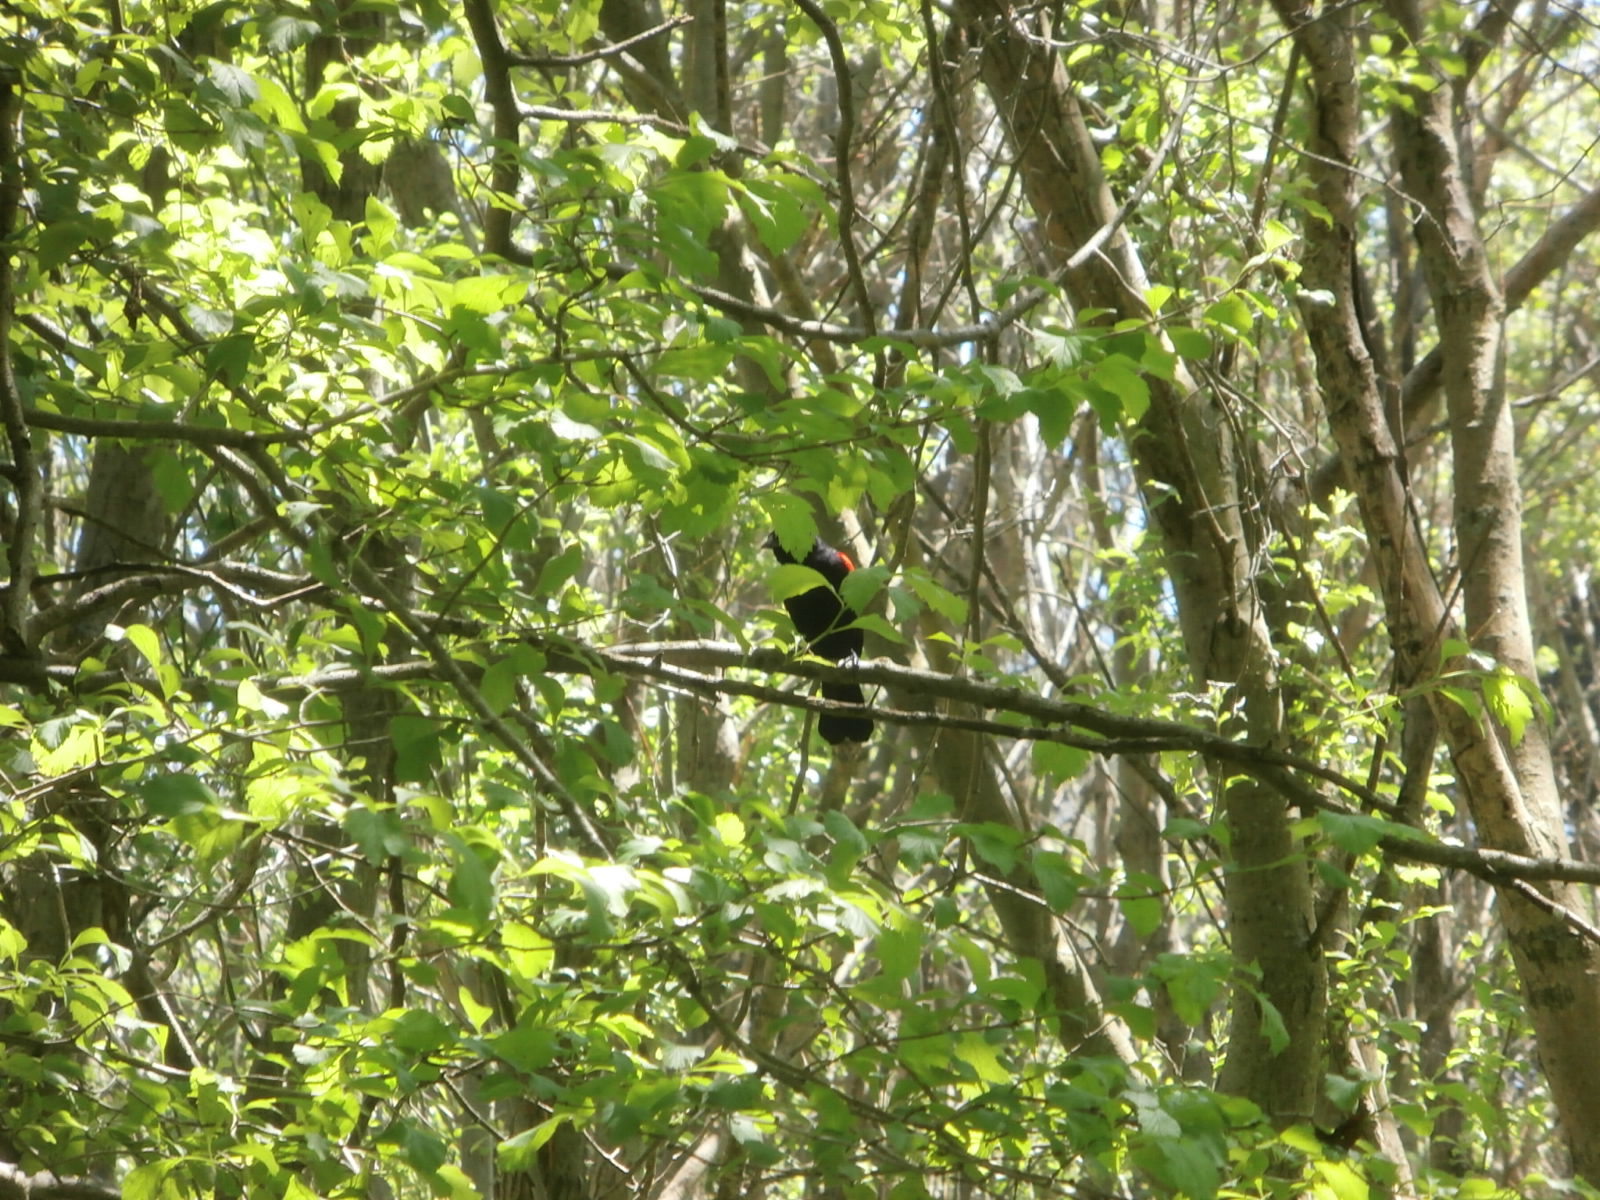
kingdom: Animalia
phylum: Chordata
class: Aves
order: Passeriformes
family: Icteridae
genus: Agelaius
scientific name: Agelaius phoeniceus
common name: Red-winged blackbird
